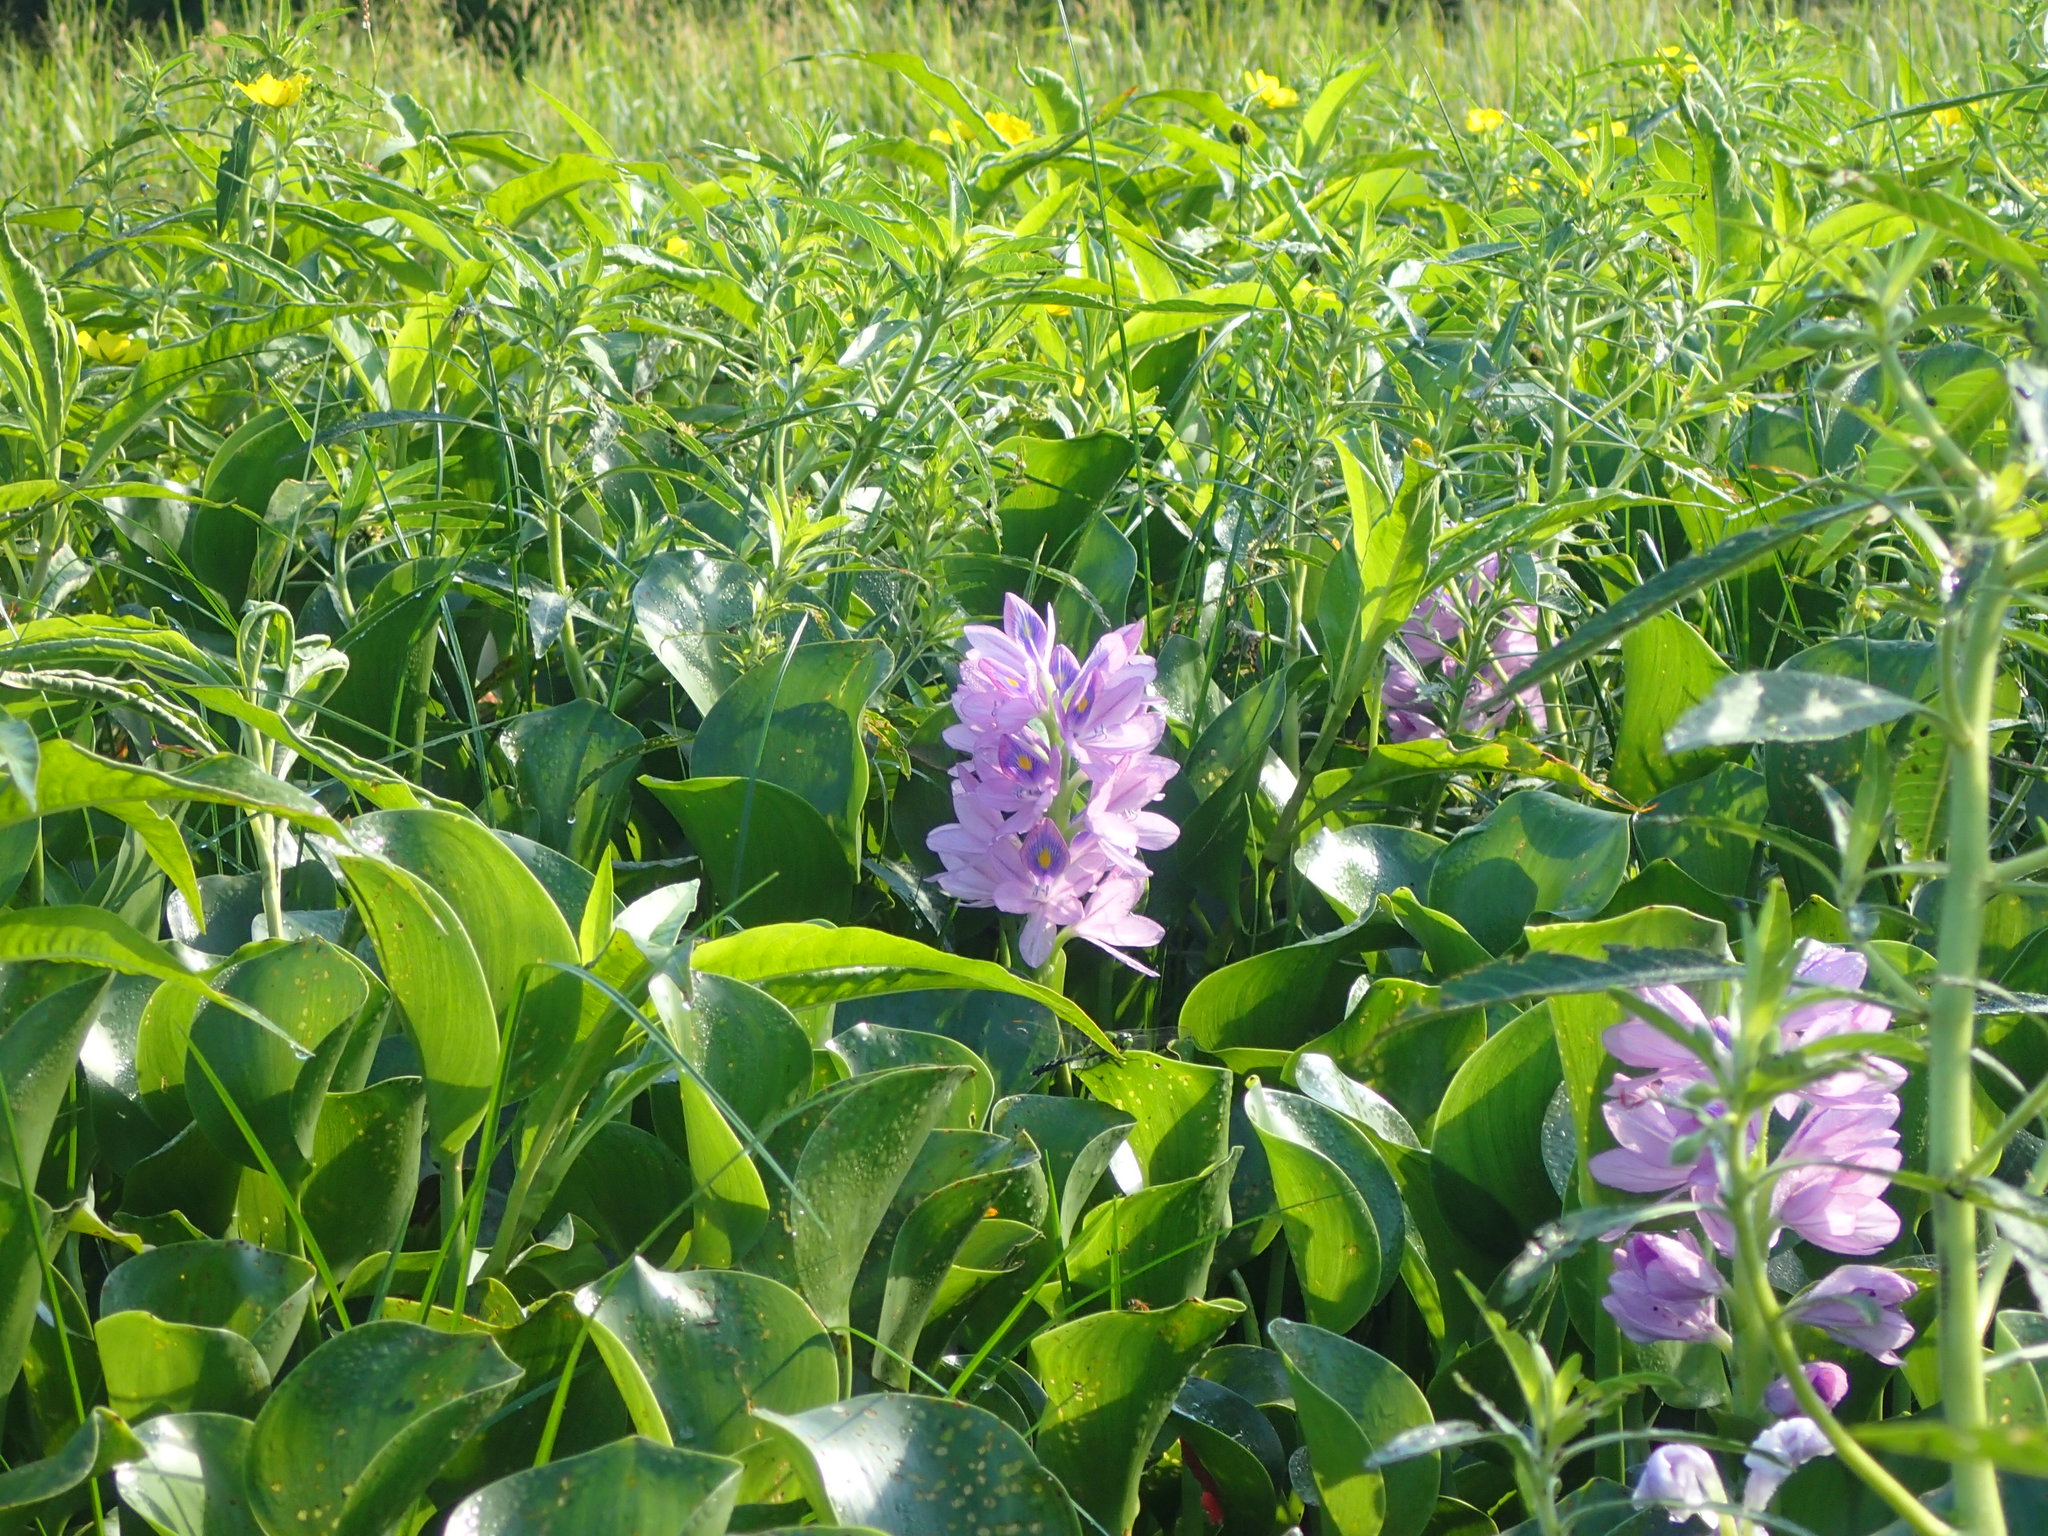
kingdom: Plantae
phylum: Tracheophyta
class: Liliopsida
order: Commelinales
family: Pontederiaceae
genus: Pontederia
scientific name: Pontederia crassipes
